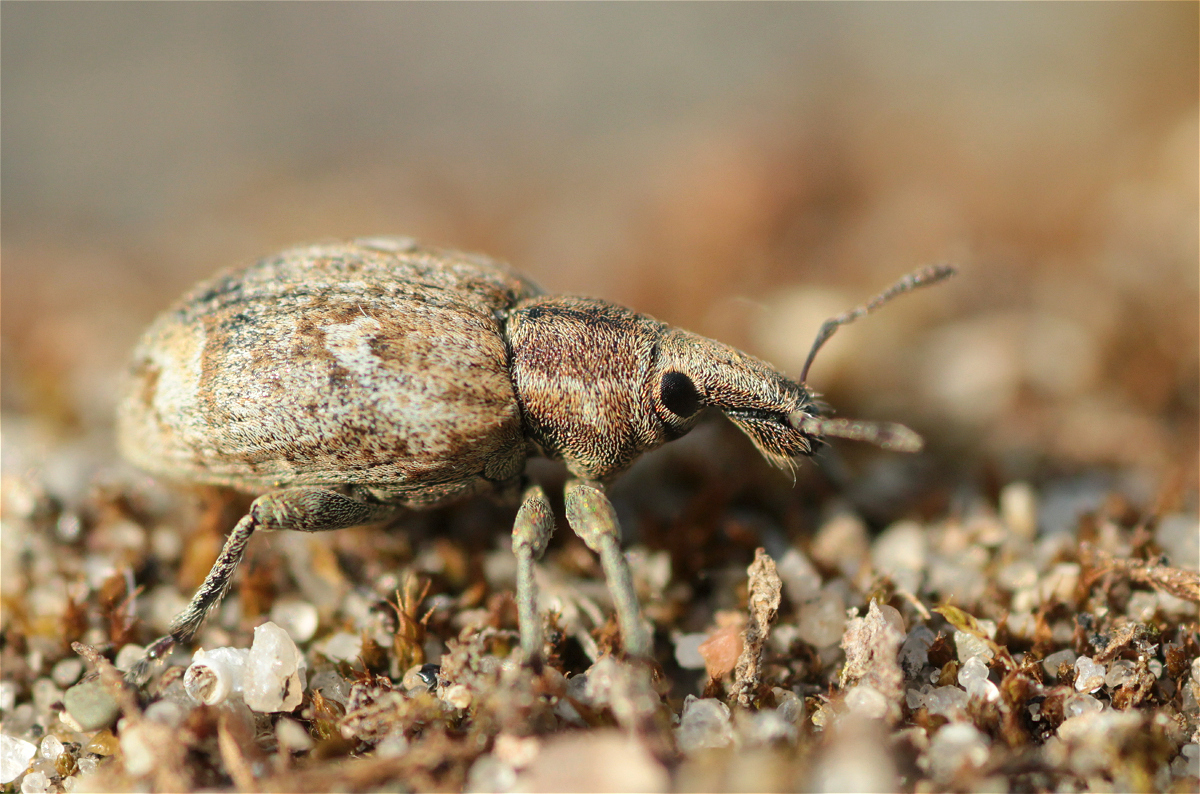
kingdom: Animalia
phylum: Arthropoda
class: Insecta
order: Coleoptera
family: Curculionidae
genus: Graptus
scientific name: Graptus triguttatus
